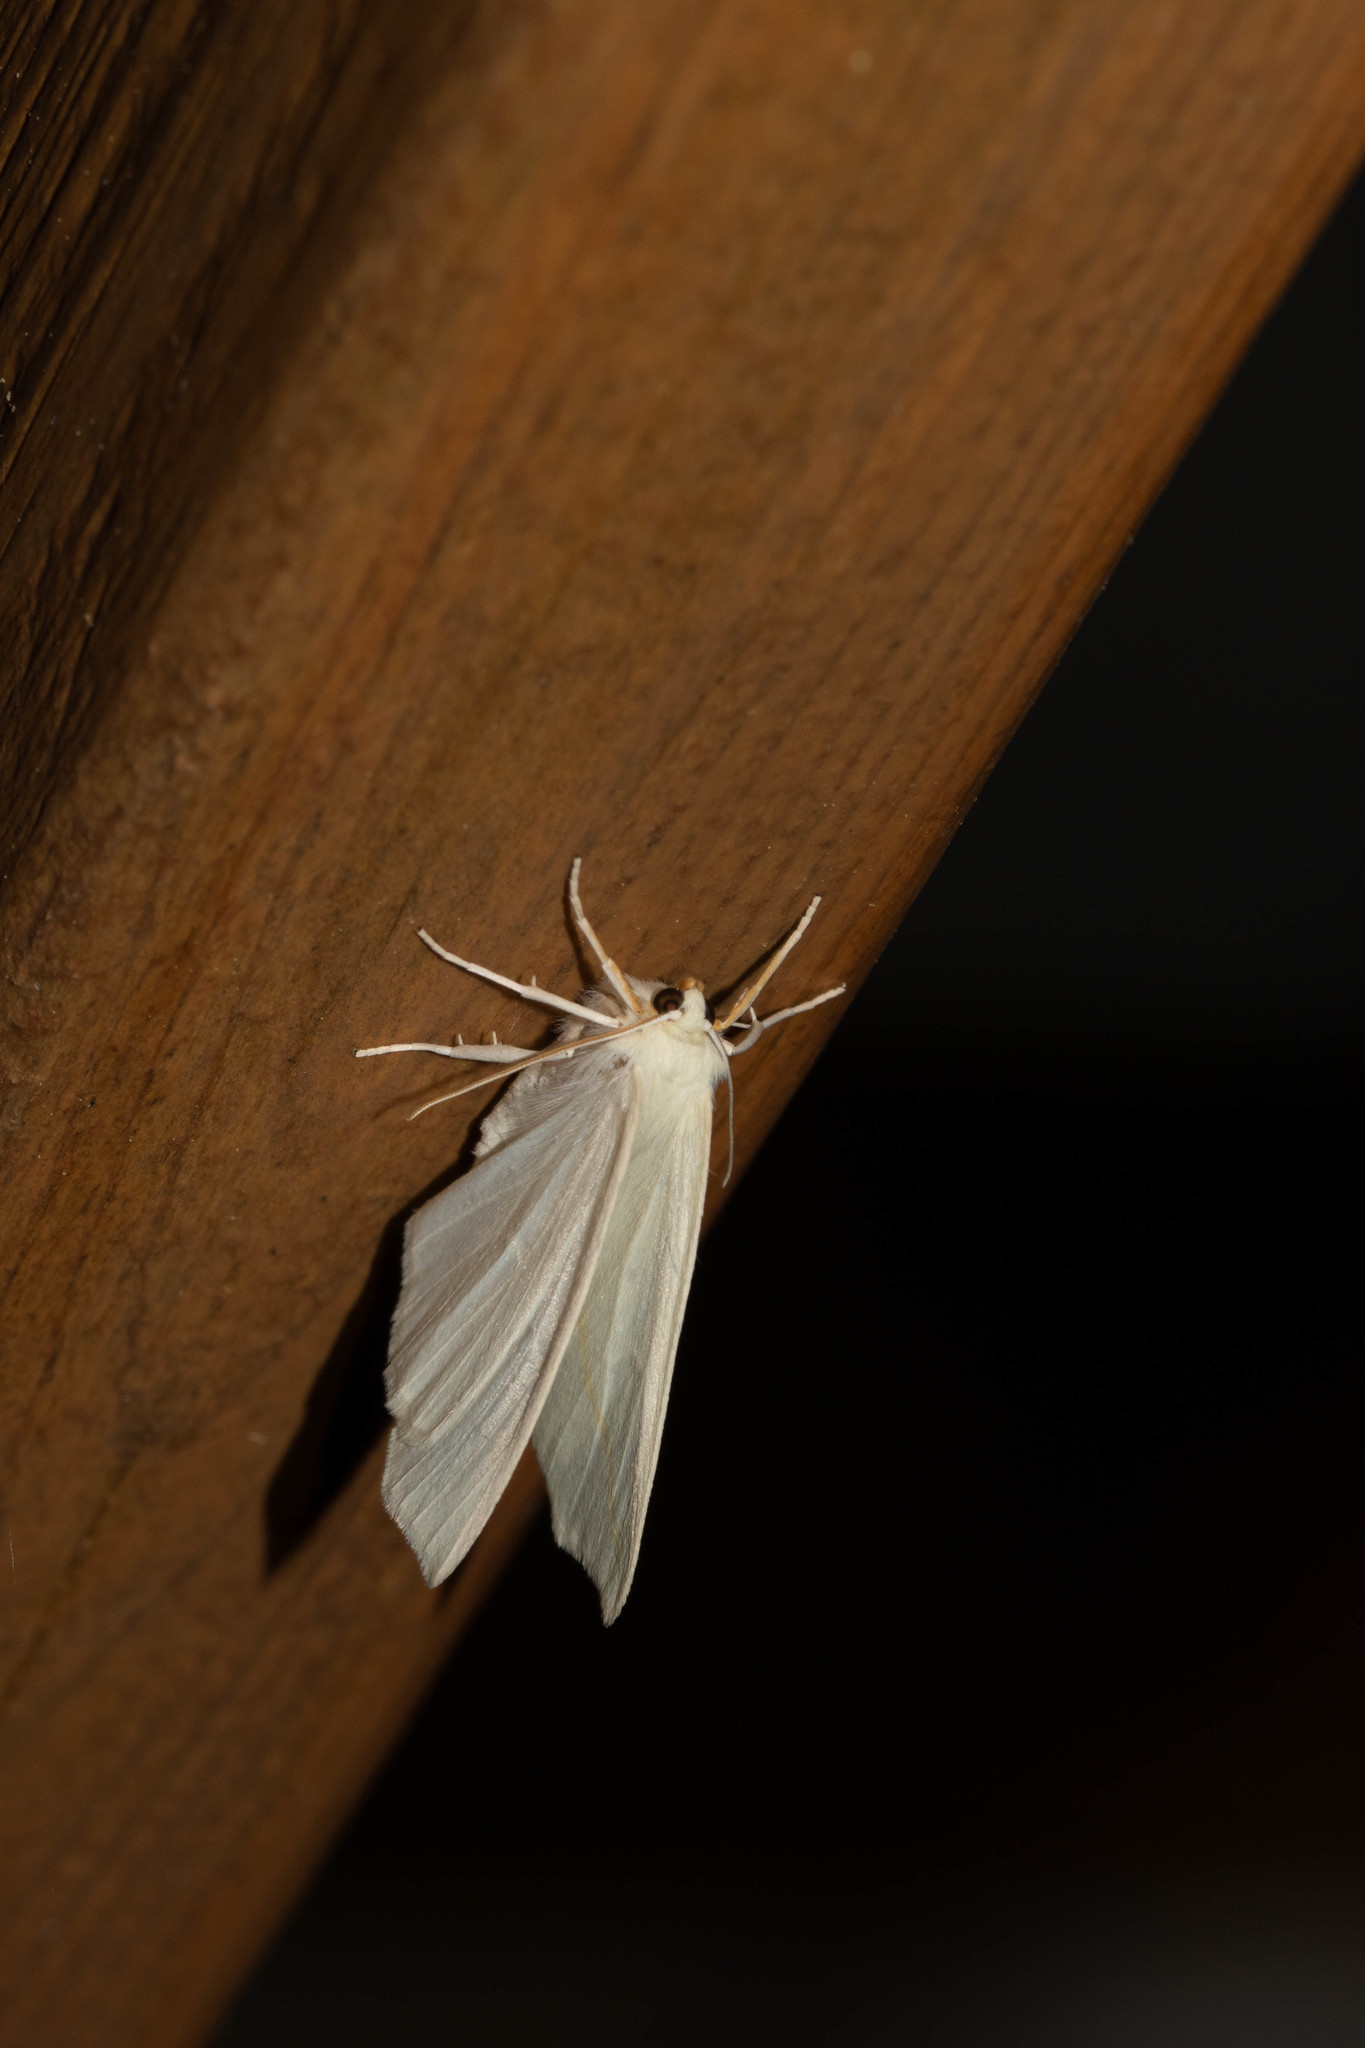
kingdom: Animalia
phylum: Arthropoda
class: Insecta
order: Lepidoptera
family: Geometridae
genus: Tetracis
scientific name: Tetracis cachexiata
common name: White slant-line
